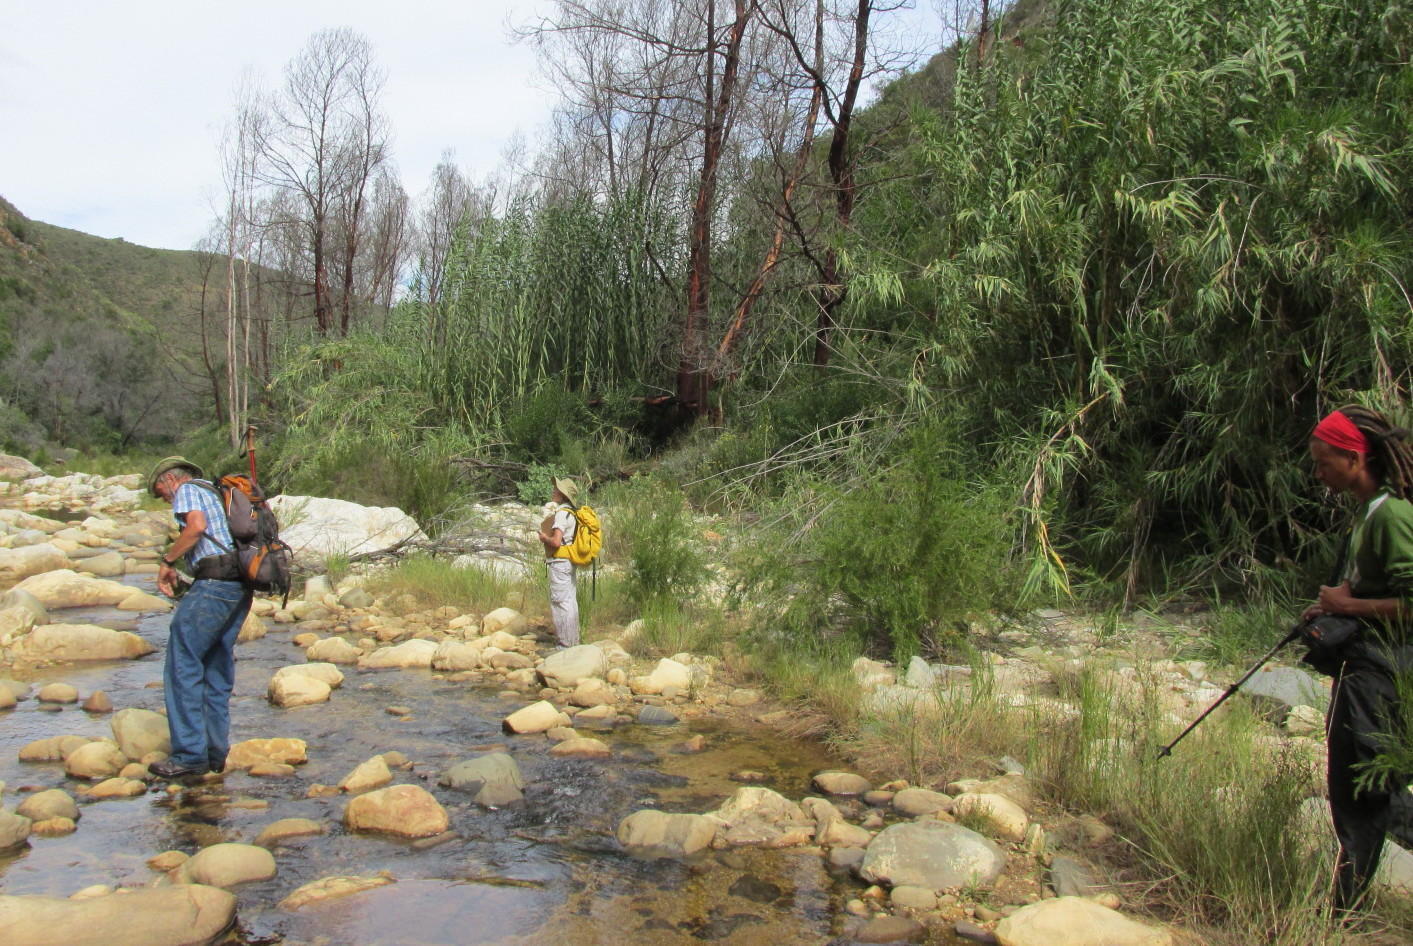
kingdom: Plantae
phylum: Tracheophyta
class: Liliopsida
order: Poales
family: Poaceae
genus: Arundo
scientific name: Arundo donax
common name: Giant reed
